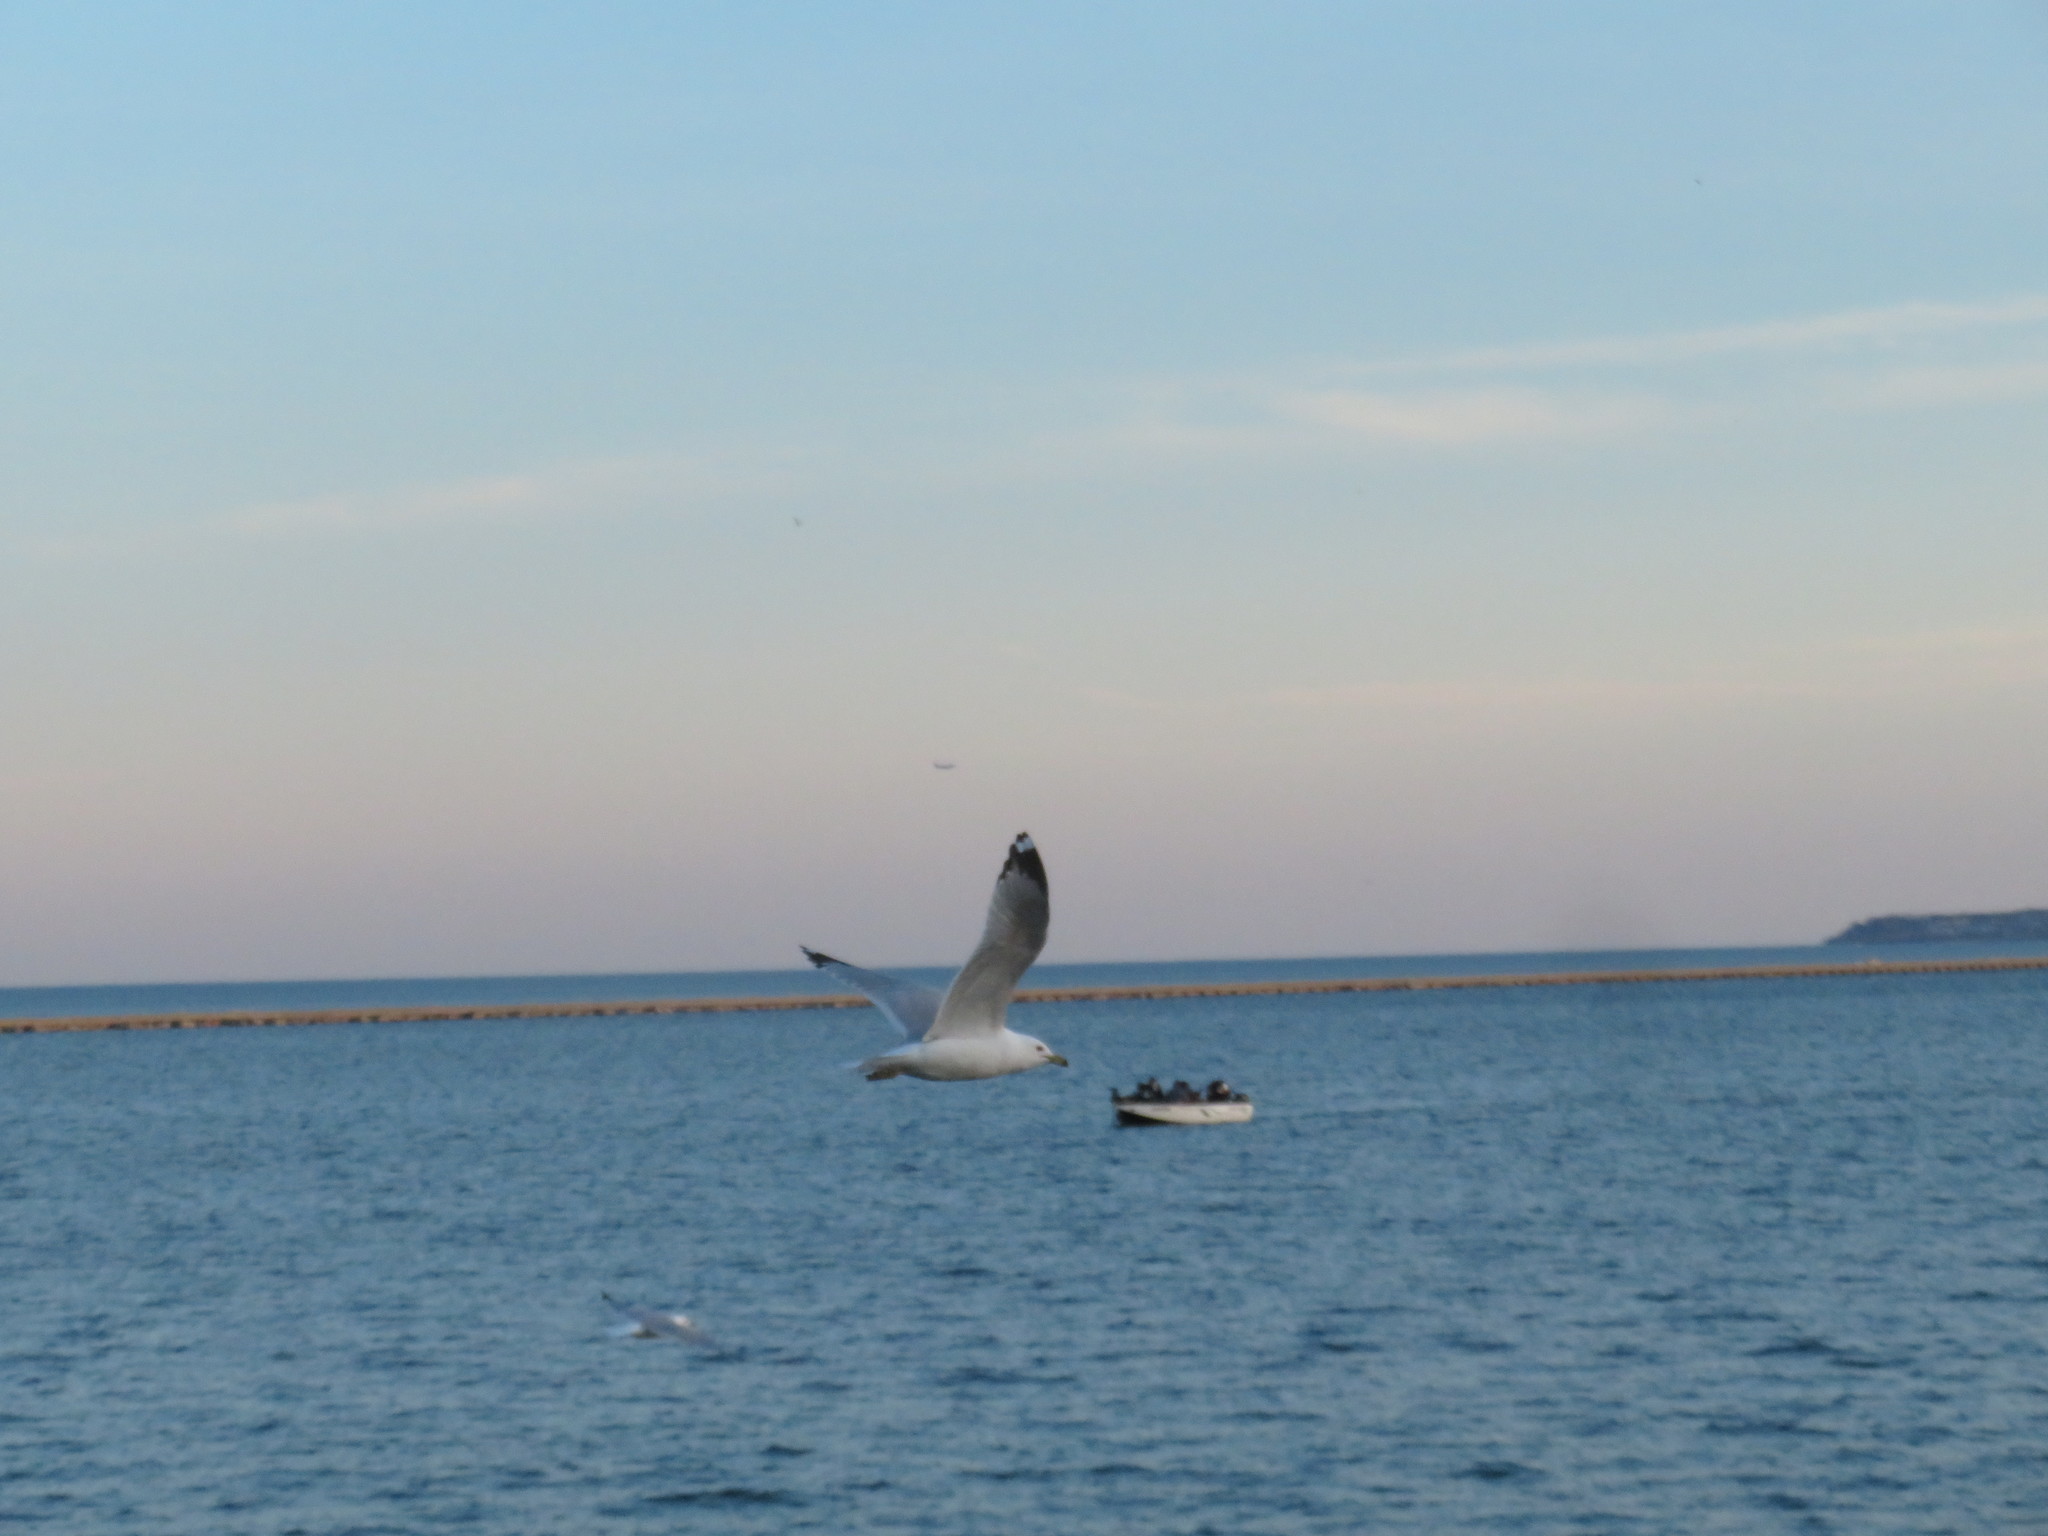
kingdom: Animalia
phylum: Chordata
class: Aves
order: Charadriiformes
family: Laridae
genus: Larus
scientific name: Larus delawarensis
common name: Ring-billed gull
